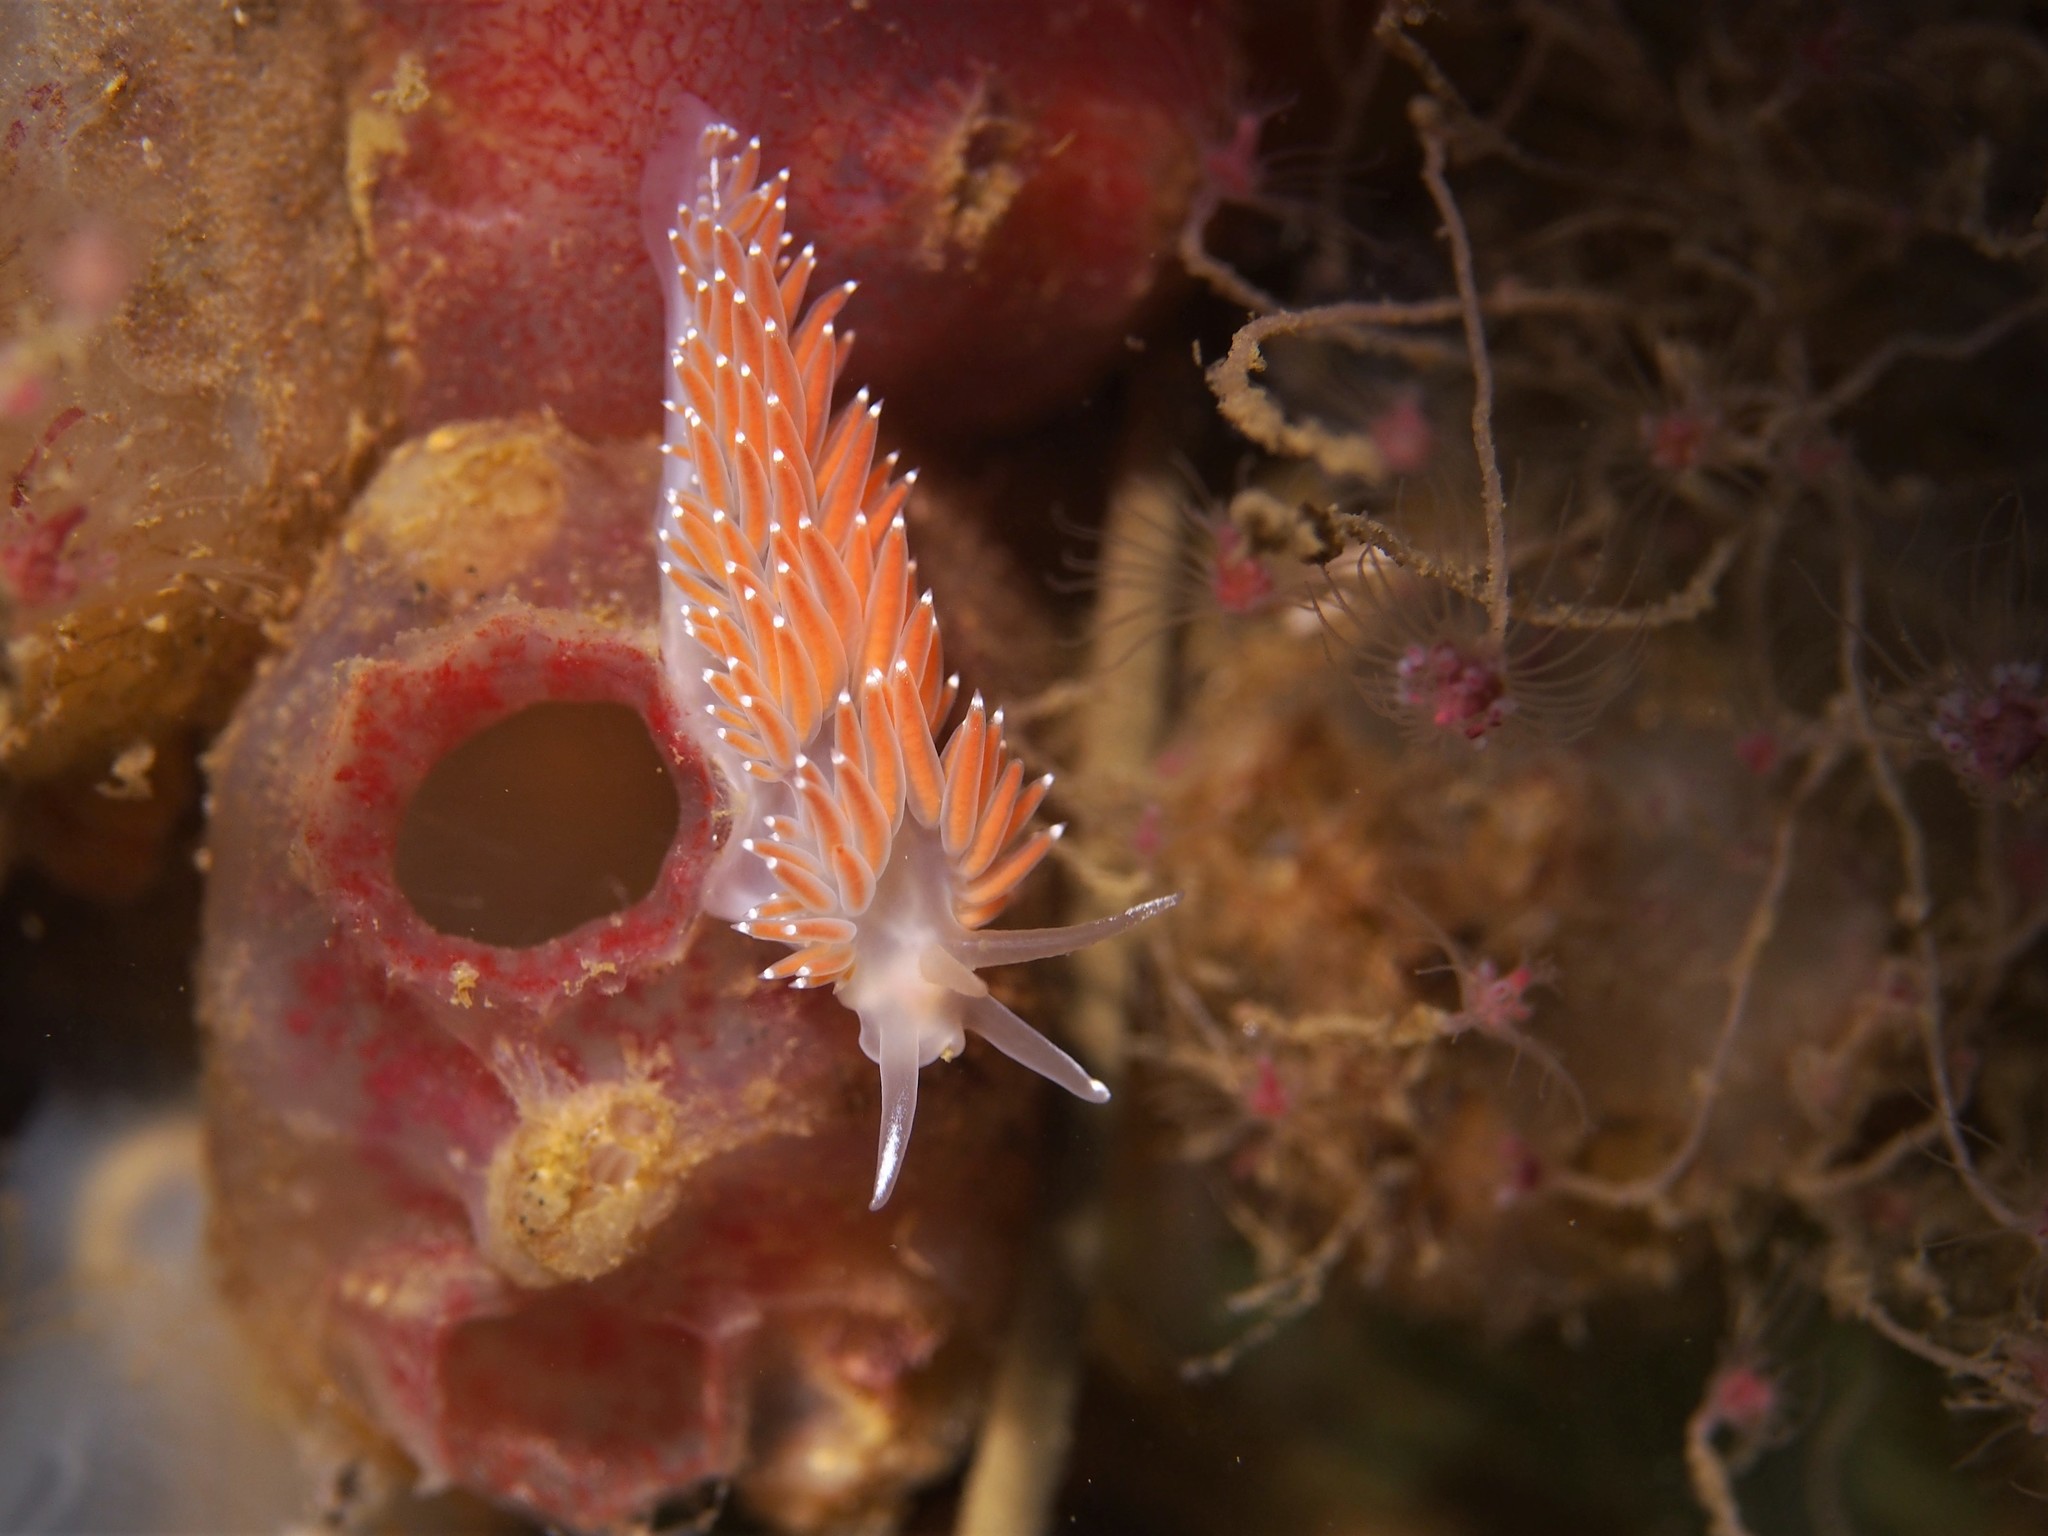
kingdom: Animalia
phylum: Mollusca
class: Gastropoda
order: Nudibranchia
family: Coryphellidae
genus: Coryphella
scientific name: Coryphella verrucosa
